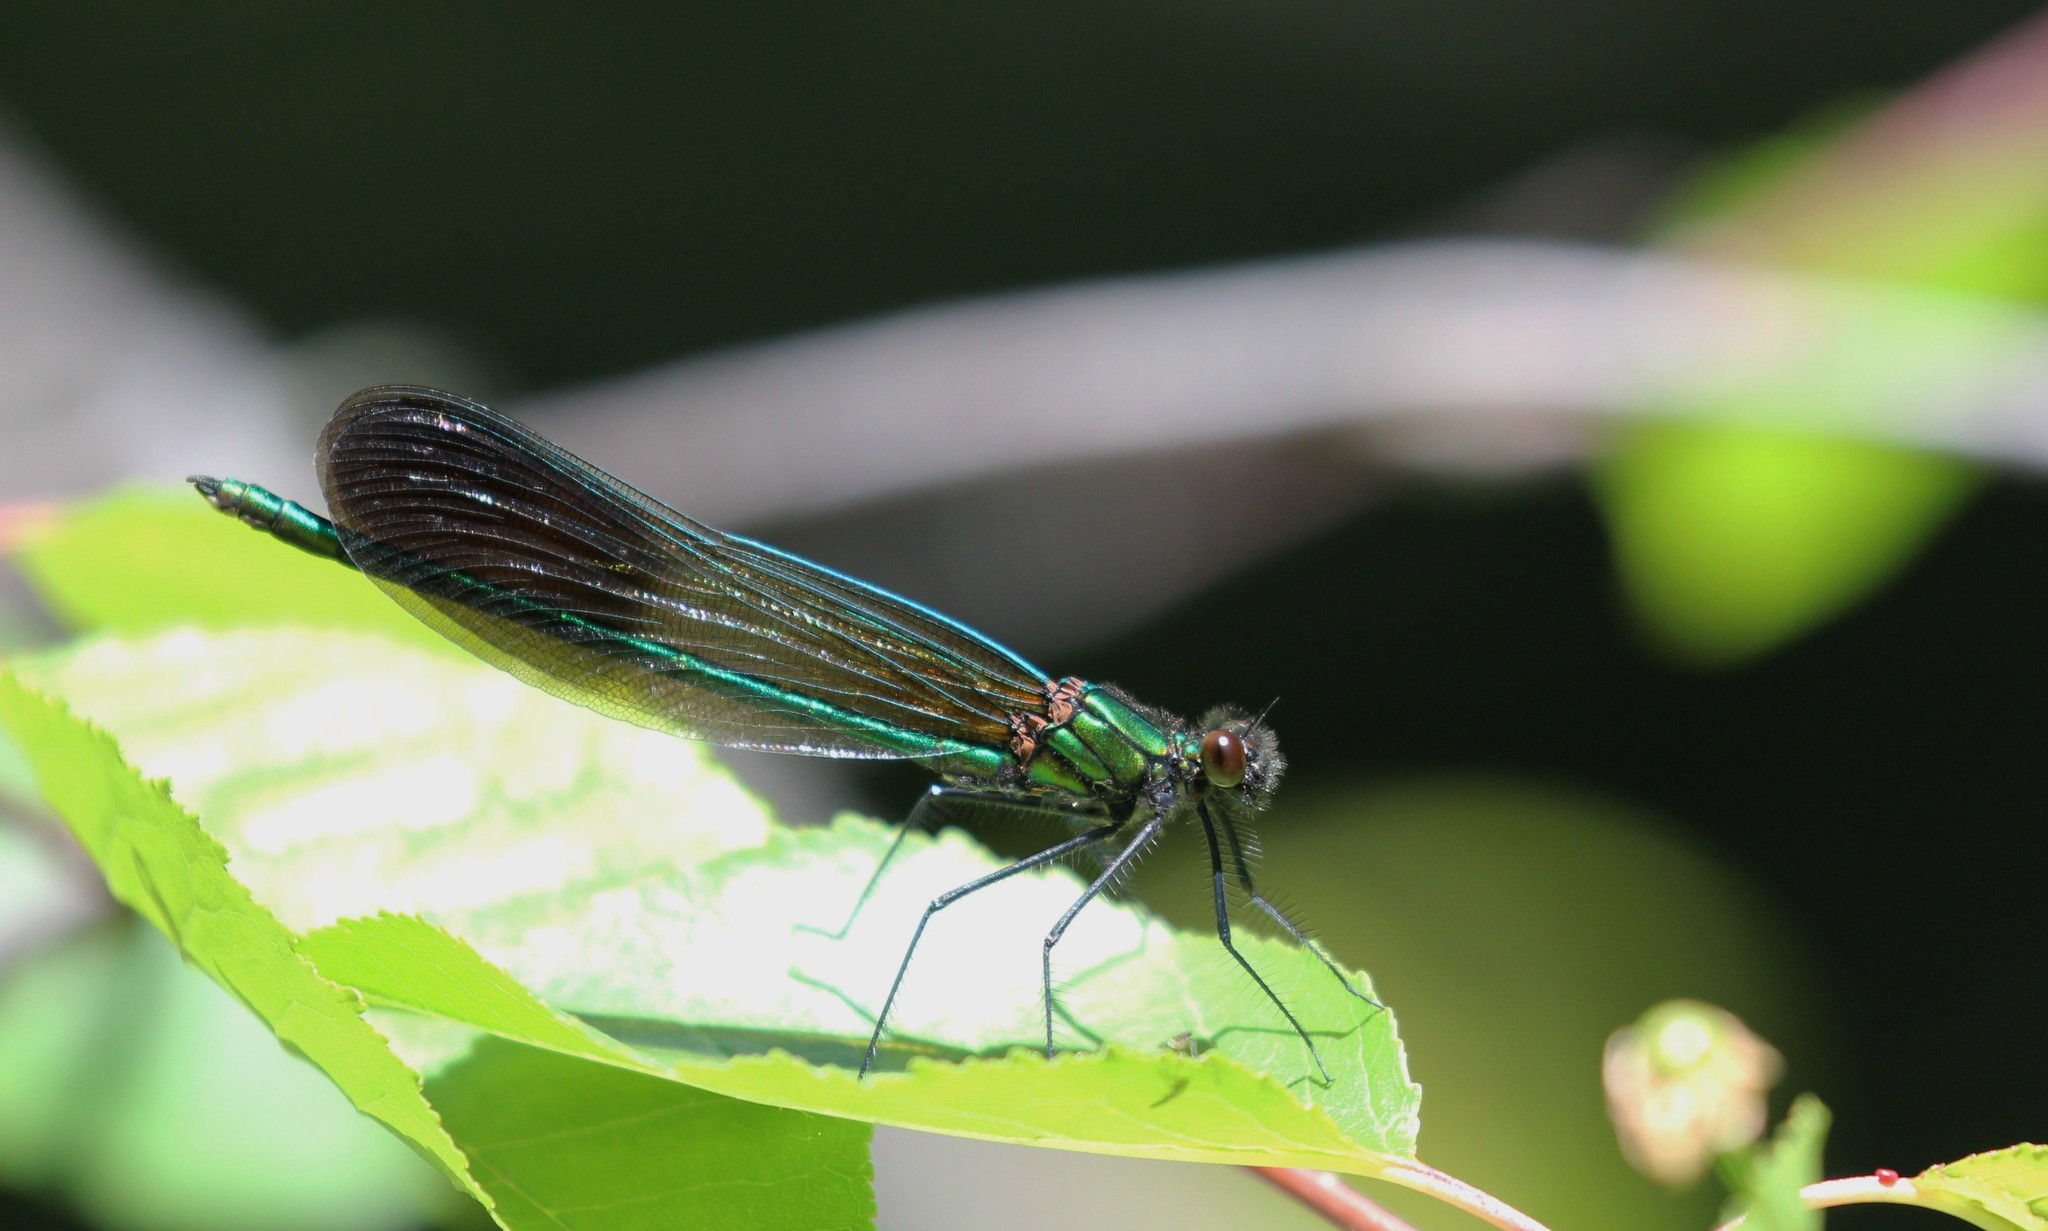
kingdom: Animalia
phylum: Arthropoda
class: Insecta
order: Odonata
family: Calopterygidae
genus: Calopteryx
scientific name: Calopteryx aequabilis
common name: River jewelwing
